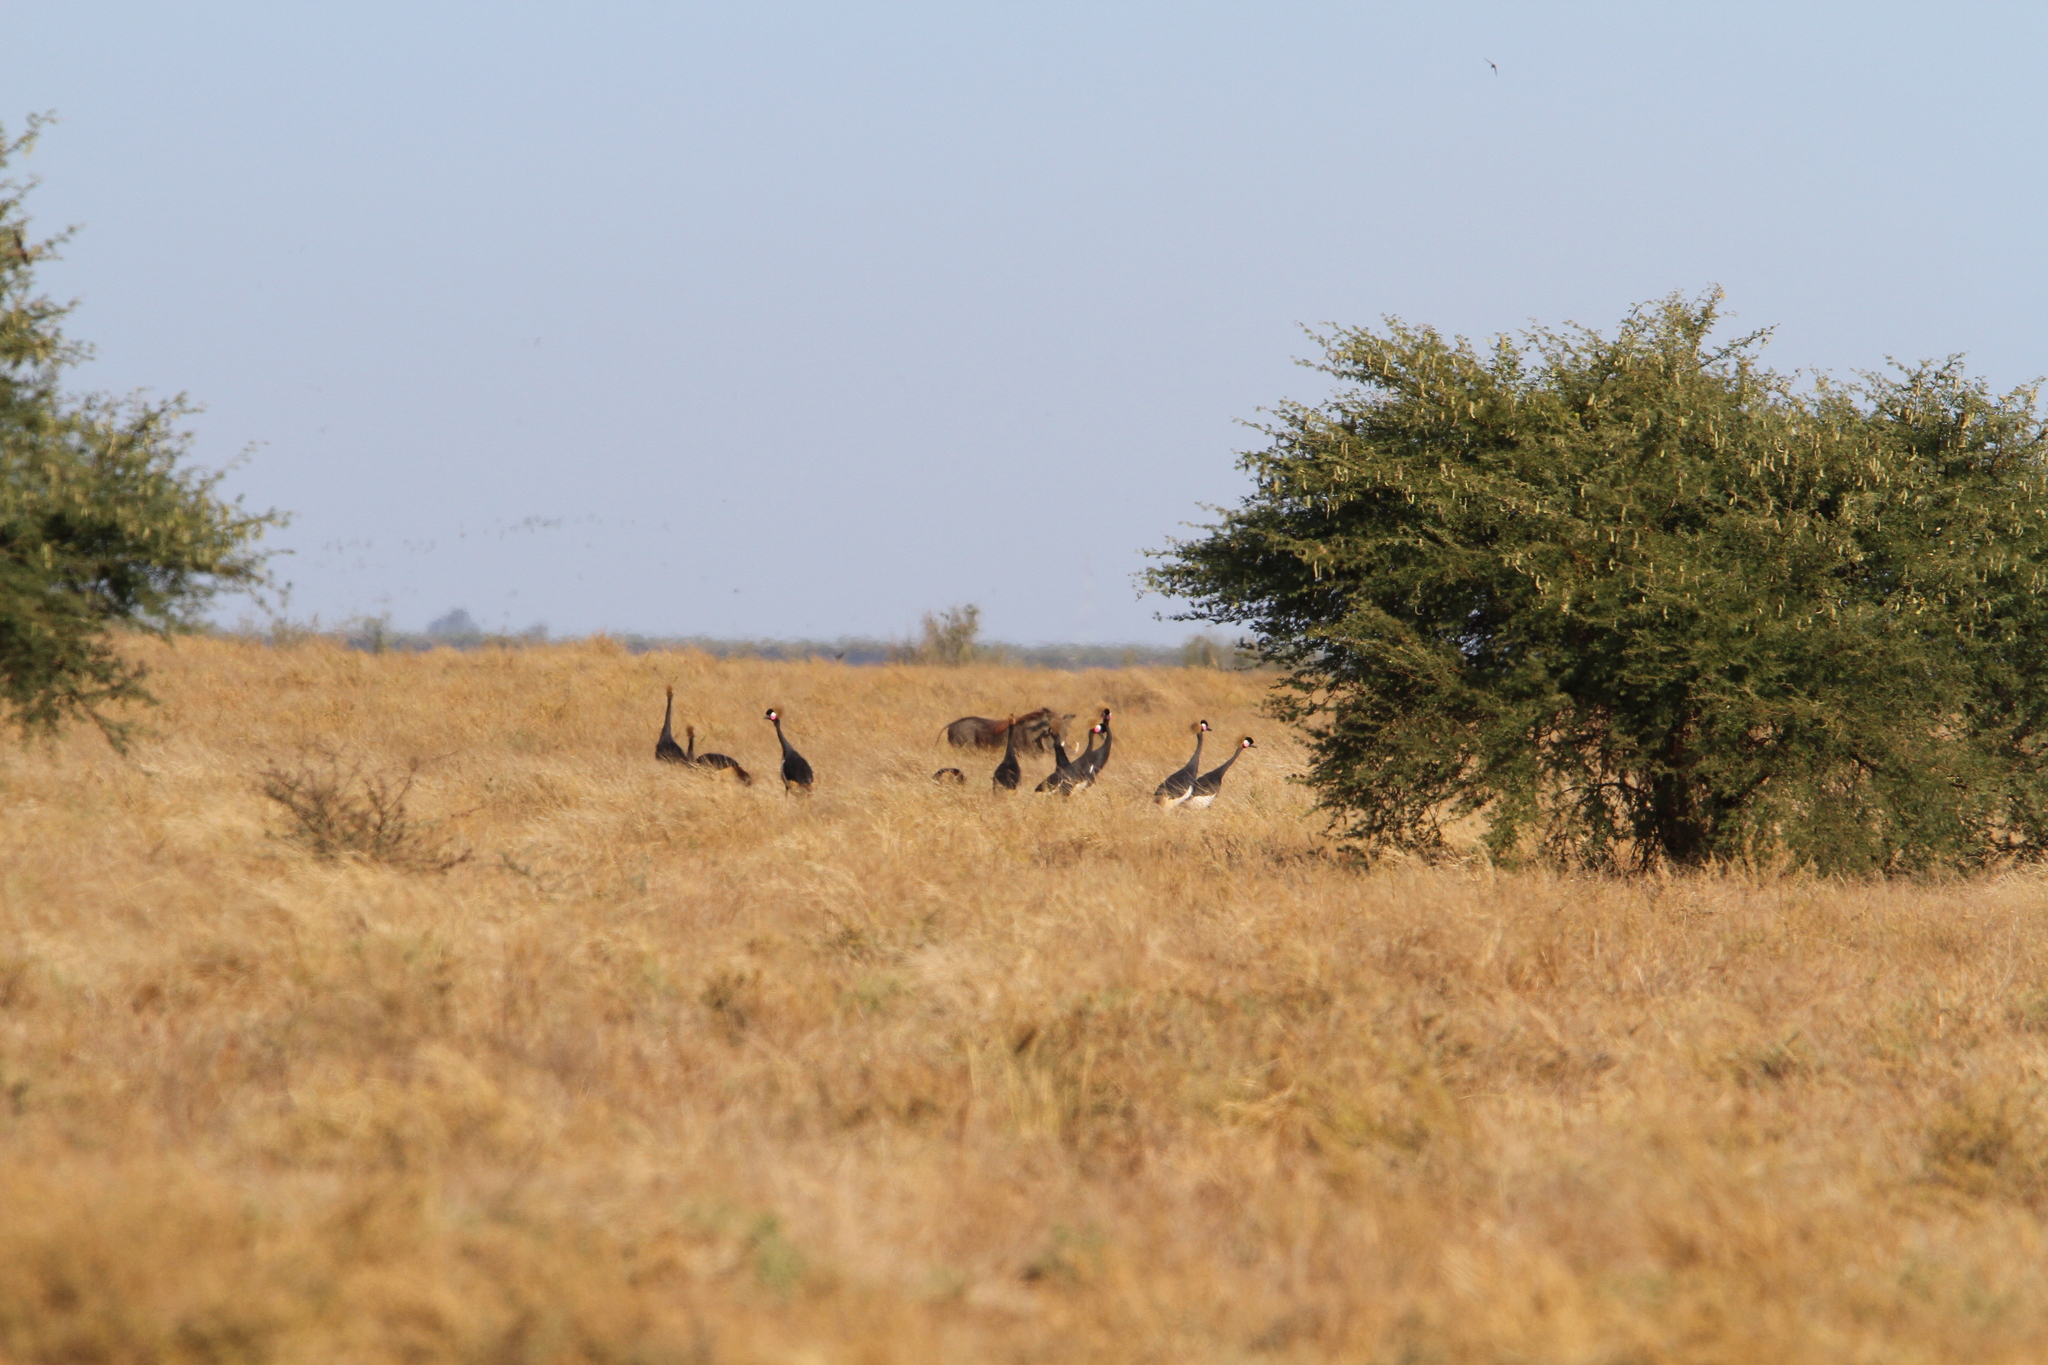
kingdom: Animalia
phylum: Chordata
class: Aves
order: Gruiformes
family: Gruidae
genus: Balearica
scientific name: Balearica pavonina
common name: Black crowned crane
